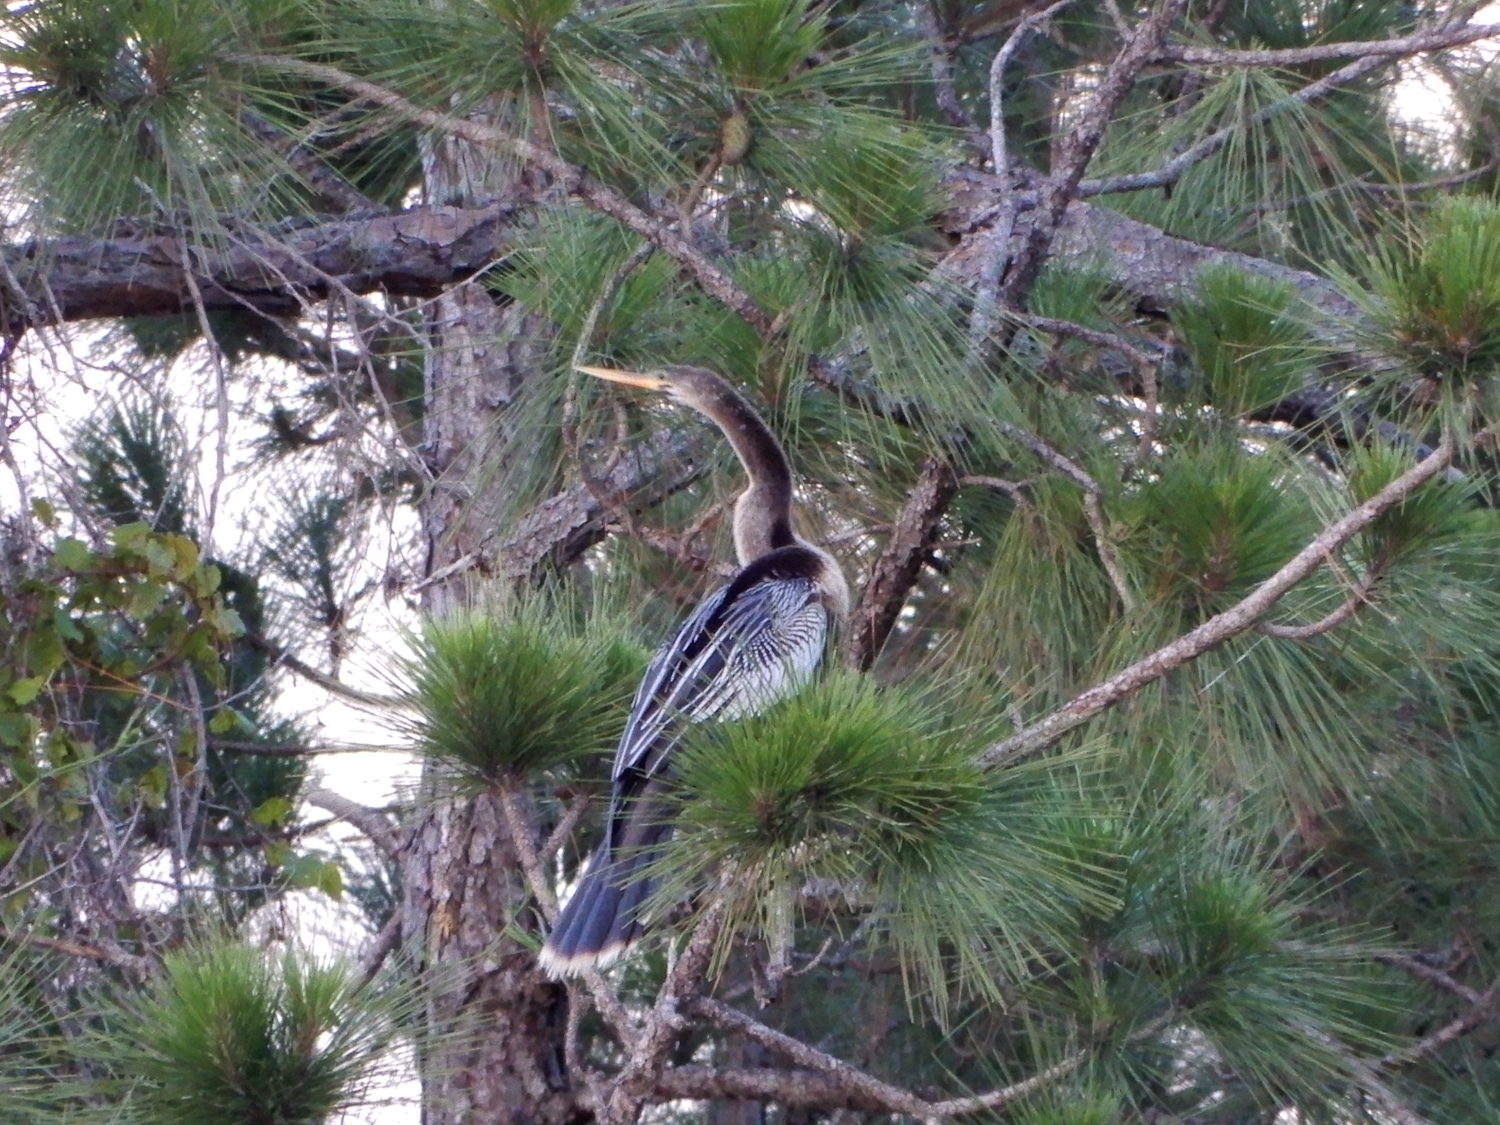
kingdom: Animalia
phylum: Chordata
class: Aves
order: Suliformes
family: Anhingidae
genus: Anhinga
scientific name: Anhinga anhinga
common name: Anhinga
